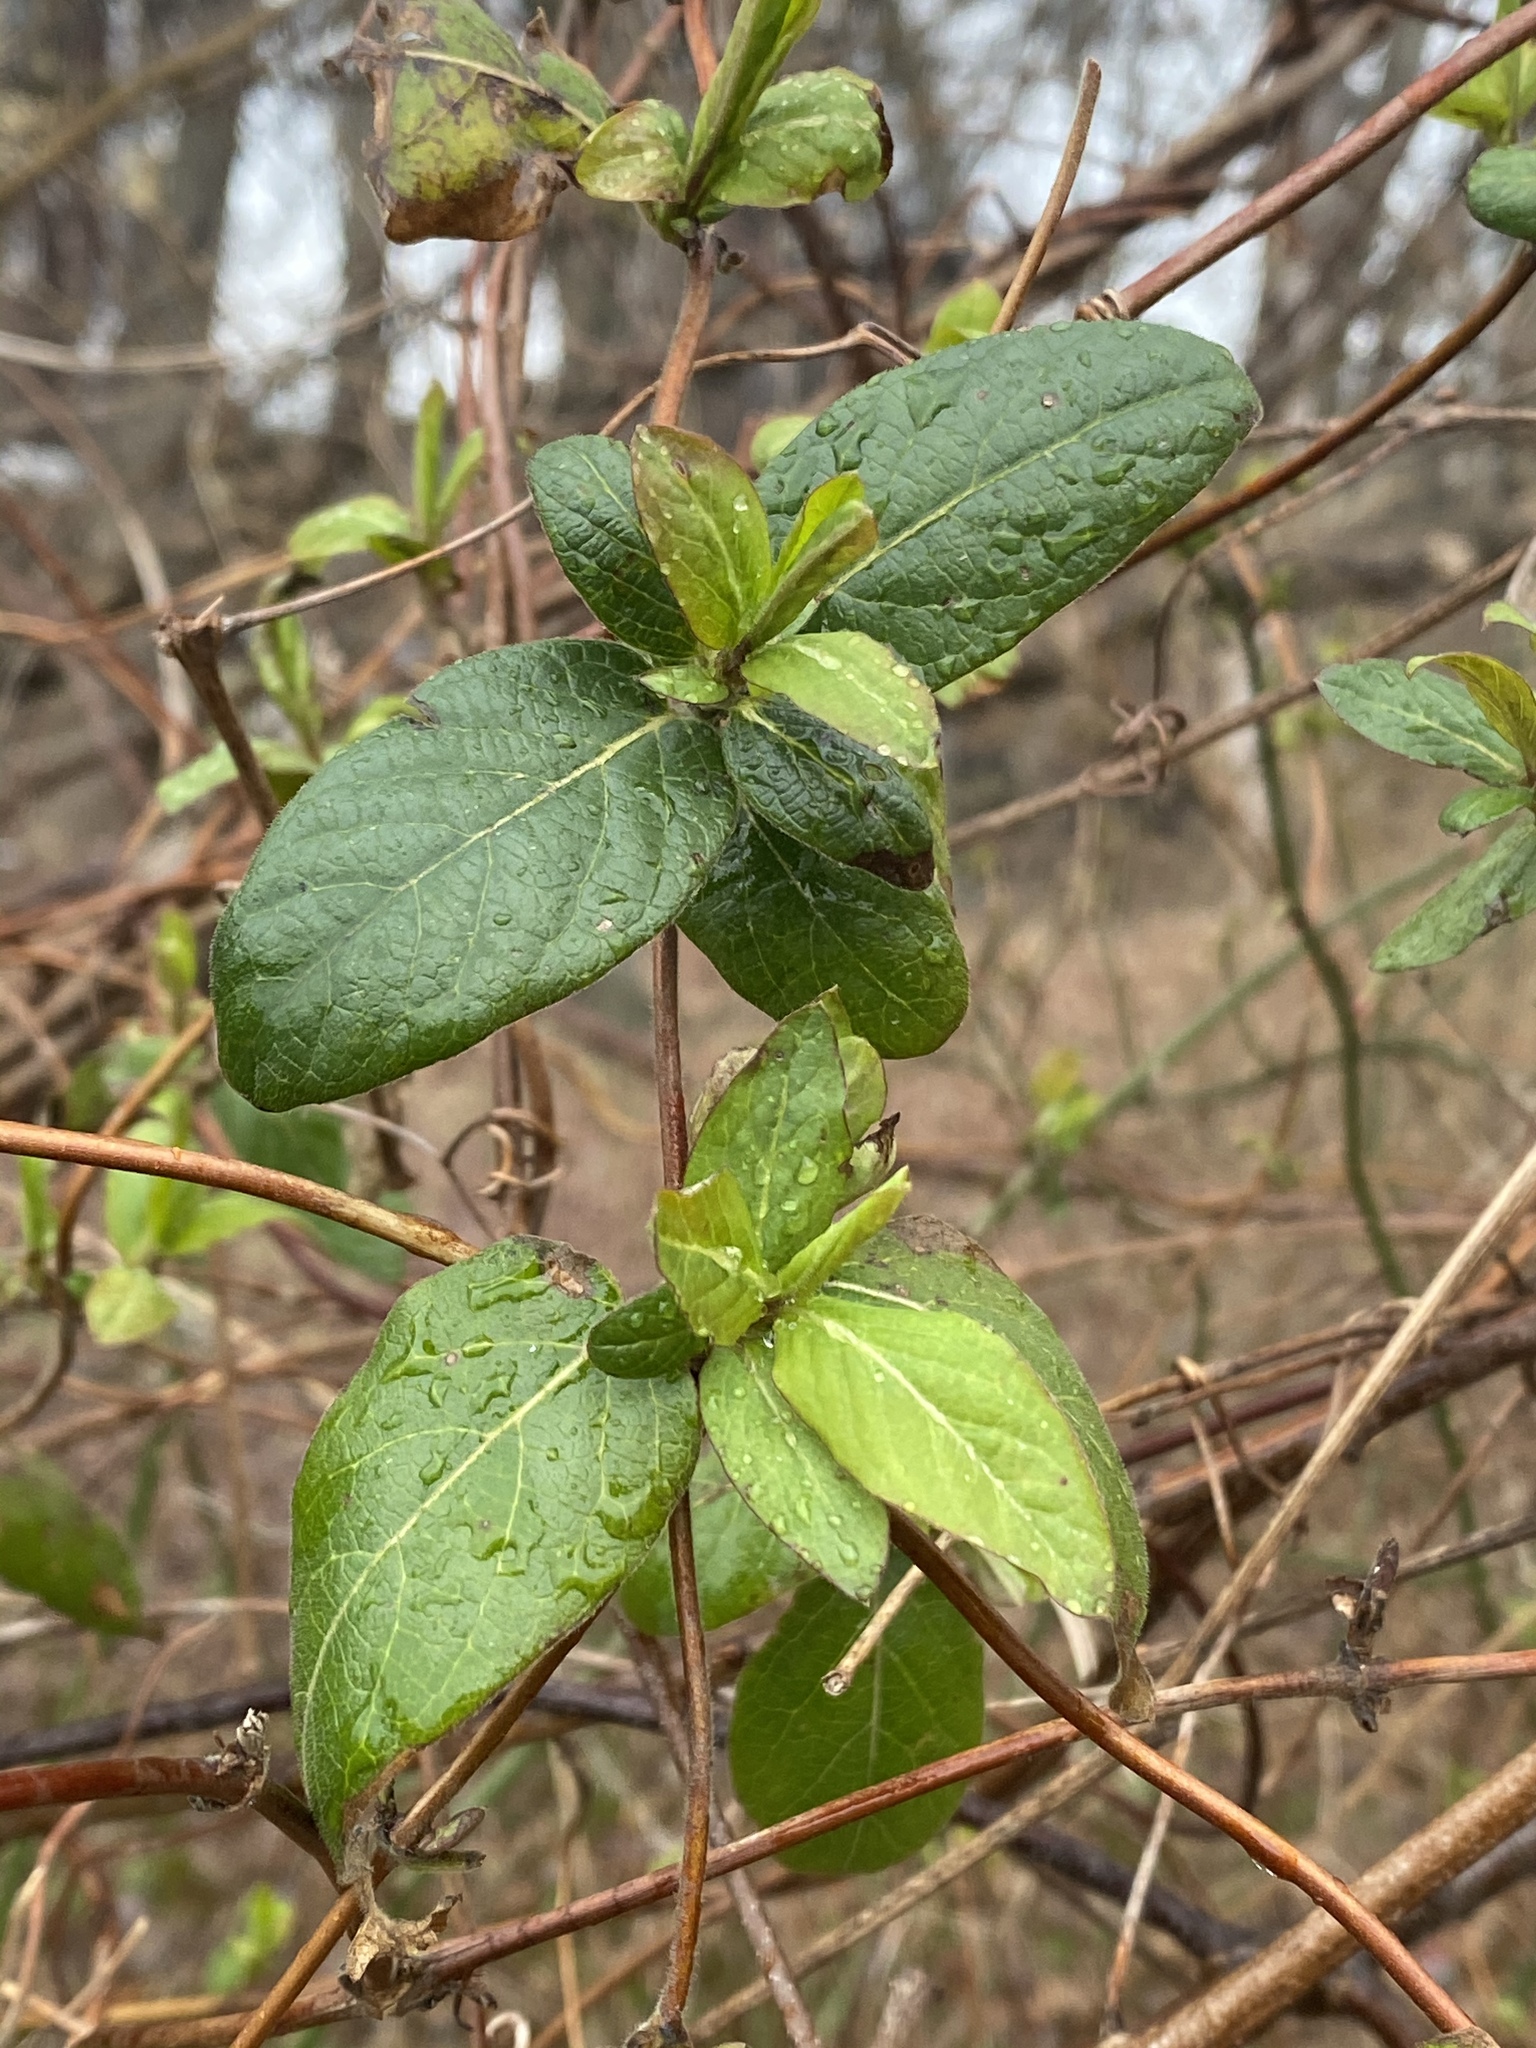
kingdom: Plantae
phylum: Tracheophyta
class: Magnoliopsida
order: Dipsacales
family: Caprifoliaceae
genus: Lonicera
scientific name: Lonicera japonica
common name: Japanese honeysuckle
